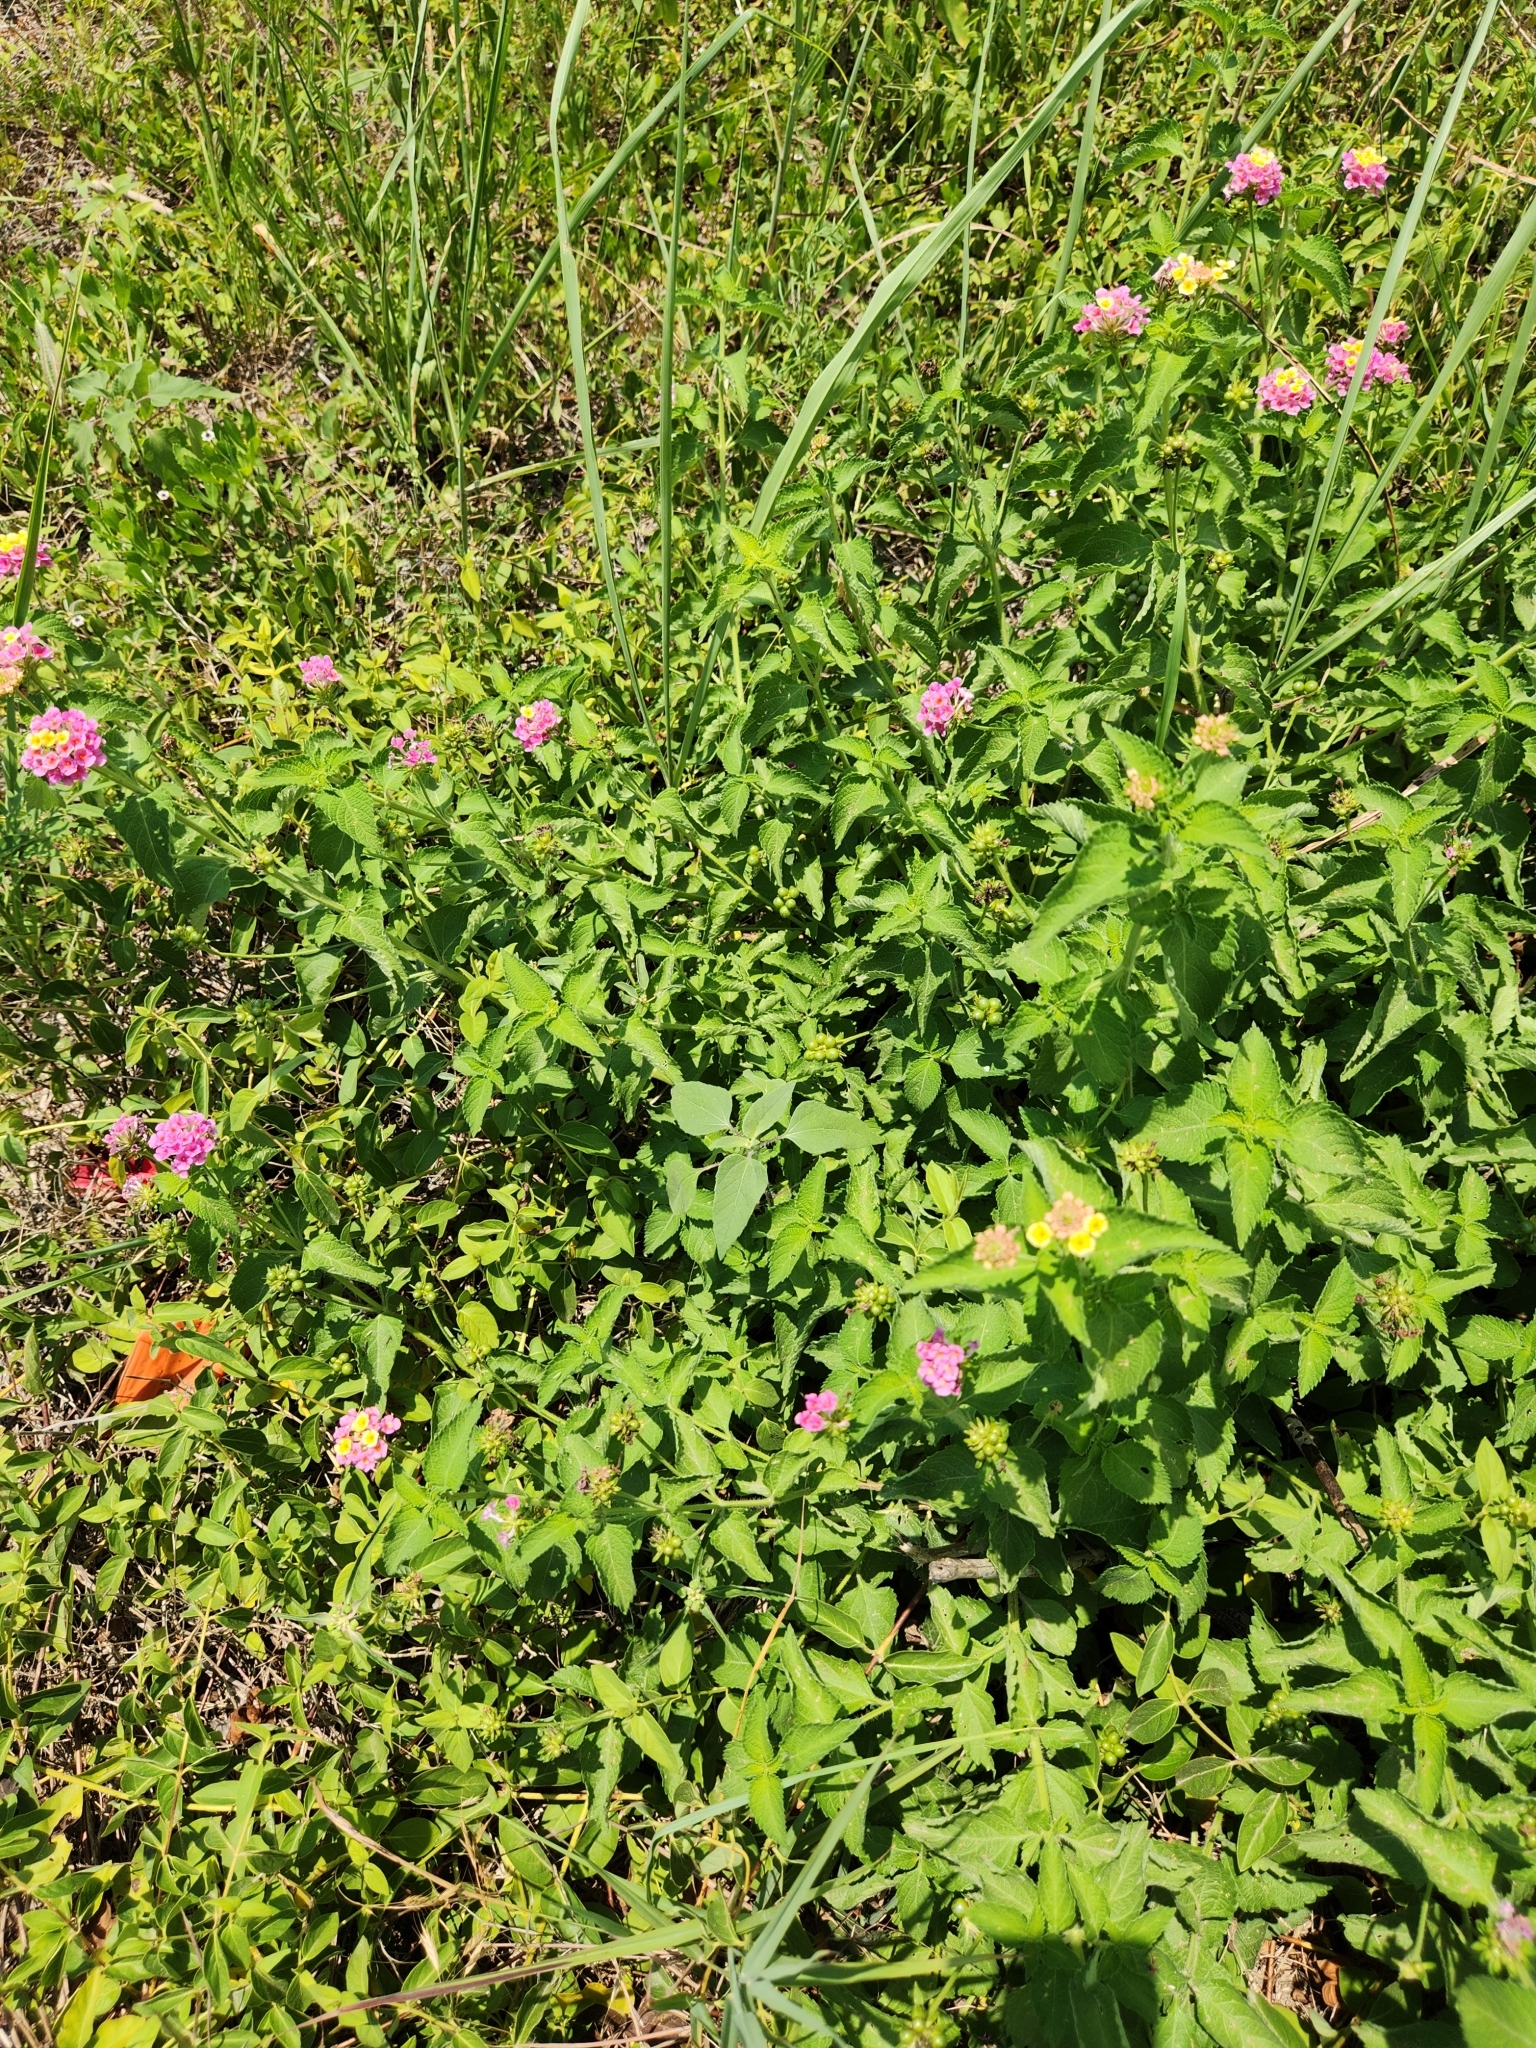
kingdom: Plantae
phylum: Tracheophyta
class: Magnoliopsida
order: Lamiales
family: Verbenaceae
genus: Lantana
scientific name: Lantana strigocamara
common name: Lantana
